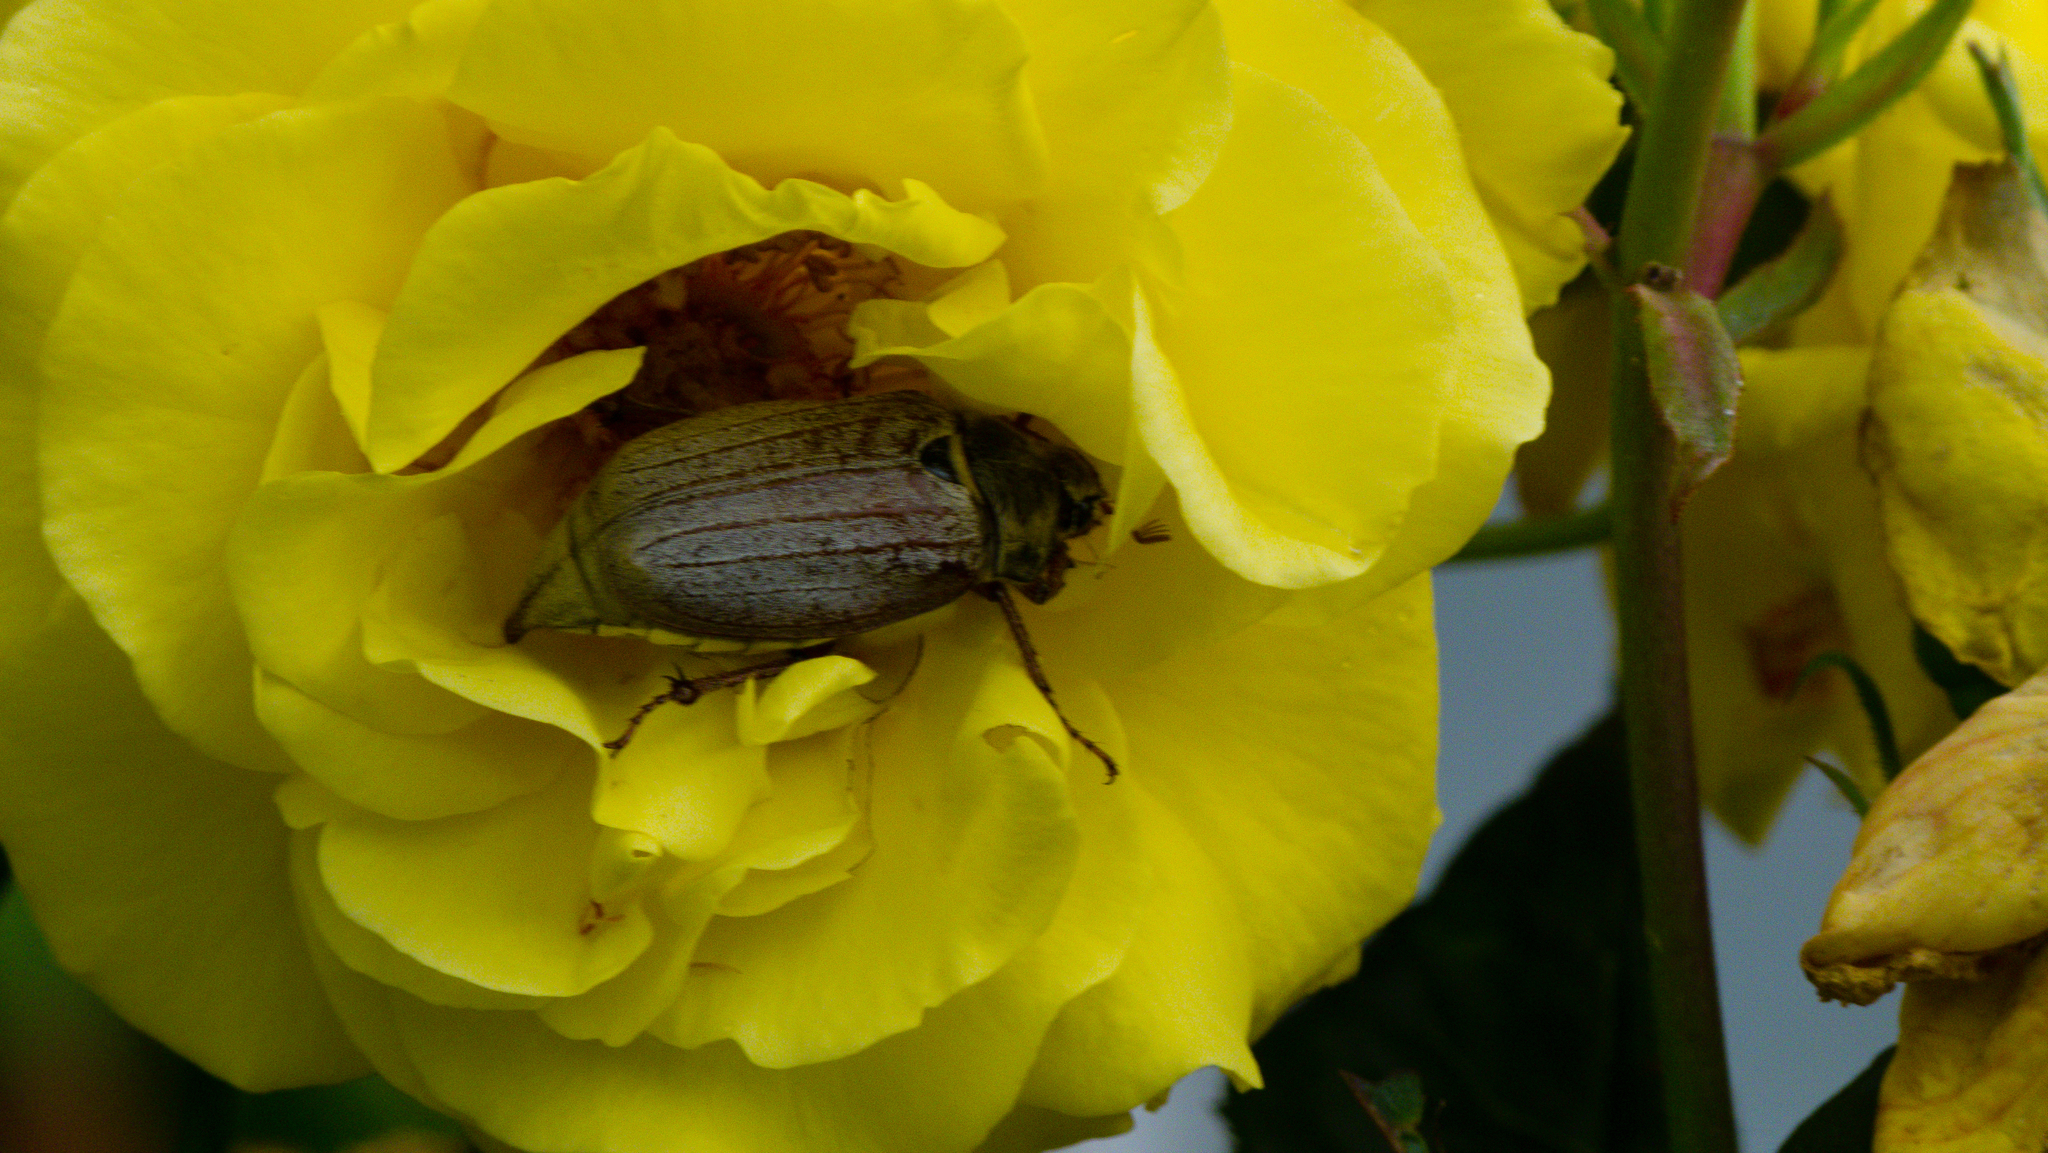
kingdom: Animalia
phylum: Arthropoda
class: Insecta
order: Coleoptera
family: Scarabaeidae
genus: Melolontha
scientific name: Melolontha melolontha
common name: Cockchafer maybeetle
